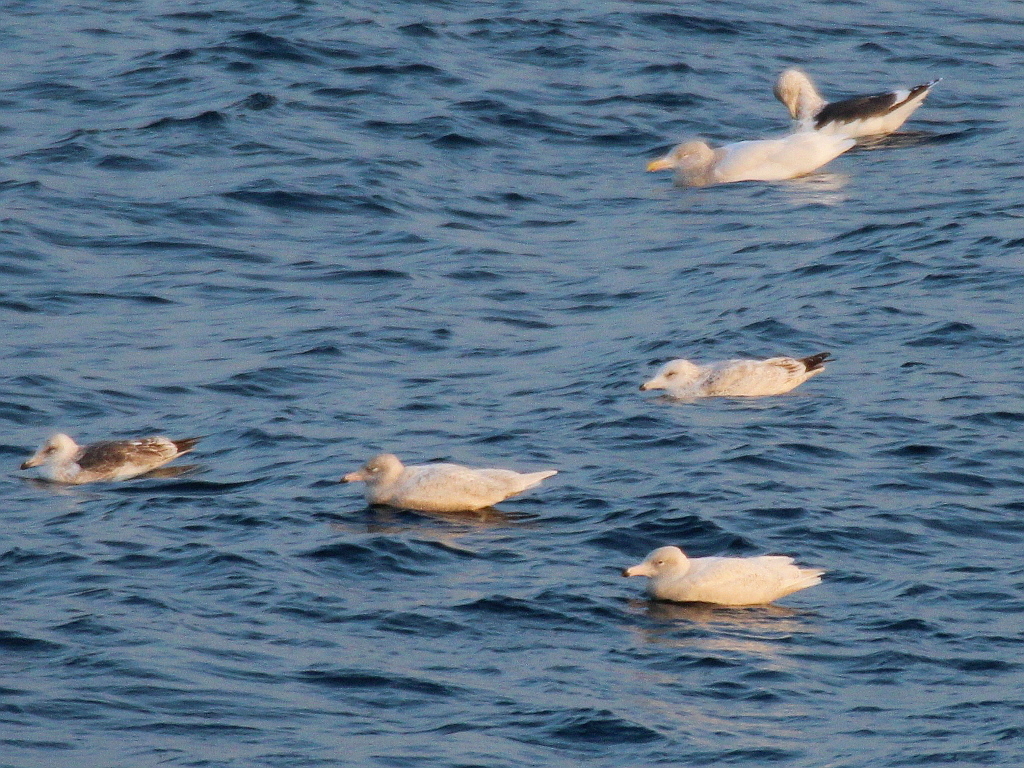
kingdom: Animalia
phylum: Chordata
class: Aves
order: Charadriiformes
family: Laridae
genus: Larus
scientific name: Larus hyperboreus
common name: Glaucous gull
